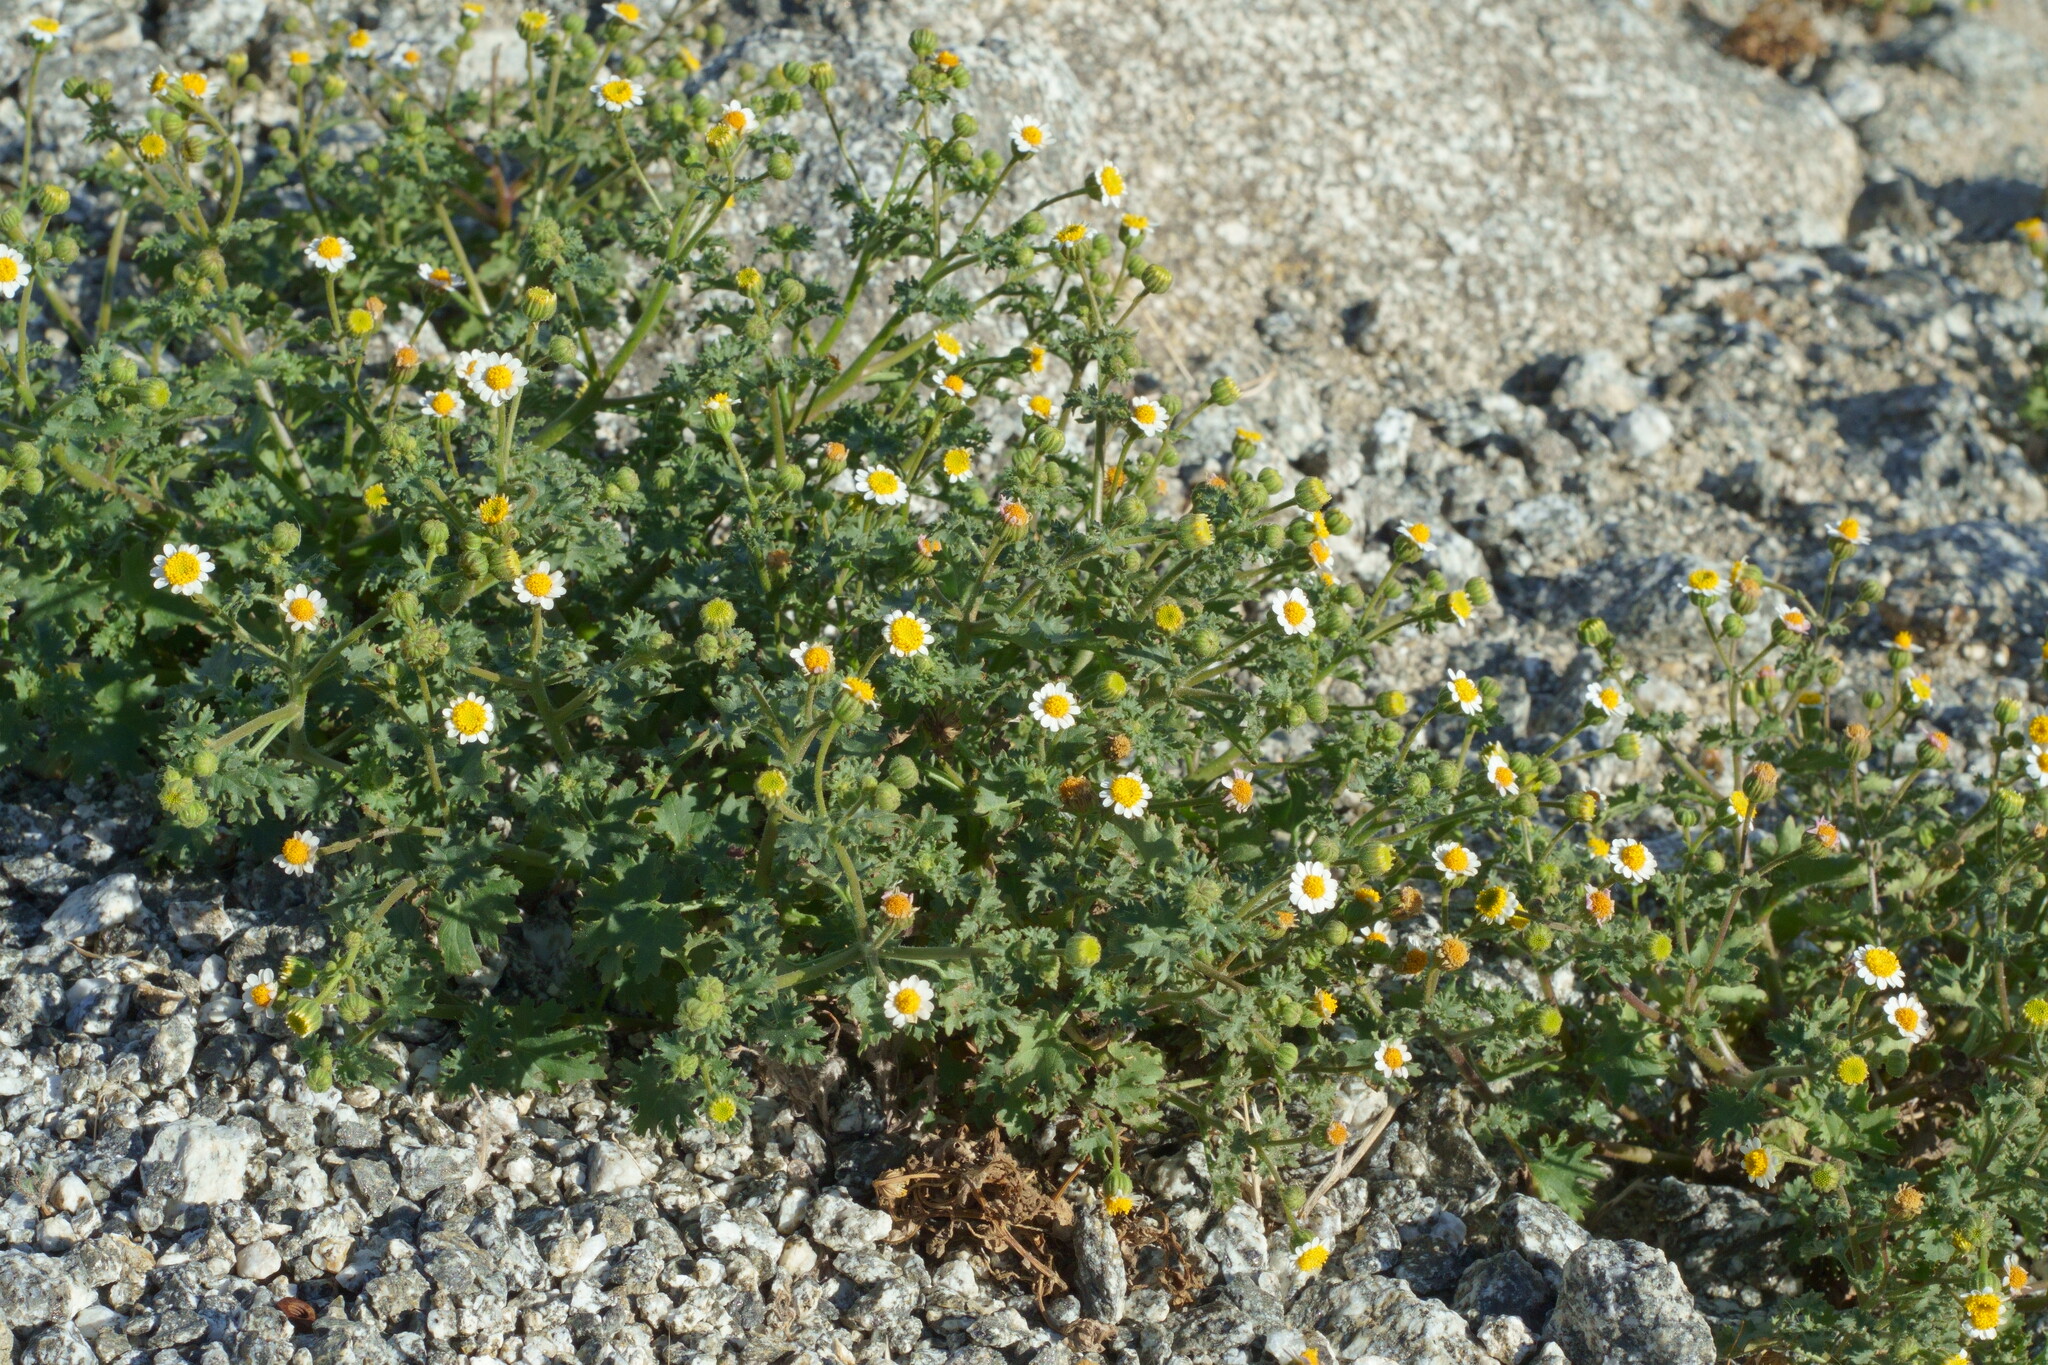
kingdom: Plantae
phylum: Tracheophyta
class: Magnoliopsida
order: Asterales
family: Asteraceae
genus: Laphamia
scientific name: Laphamia emoryi
